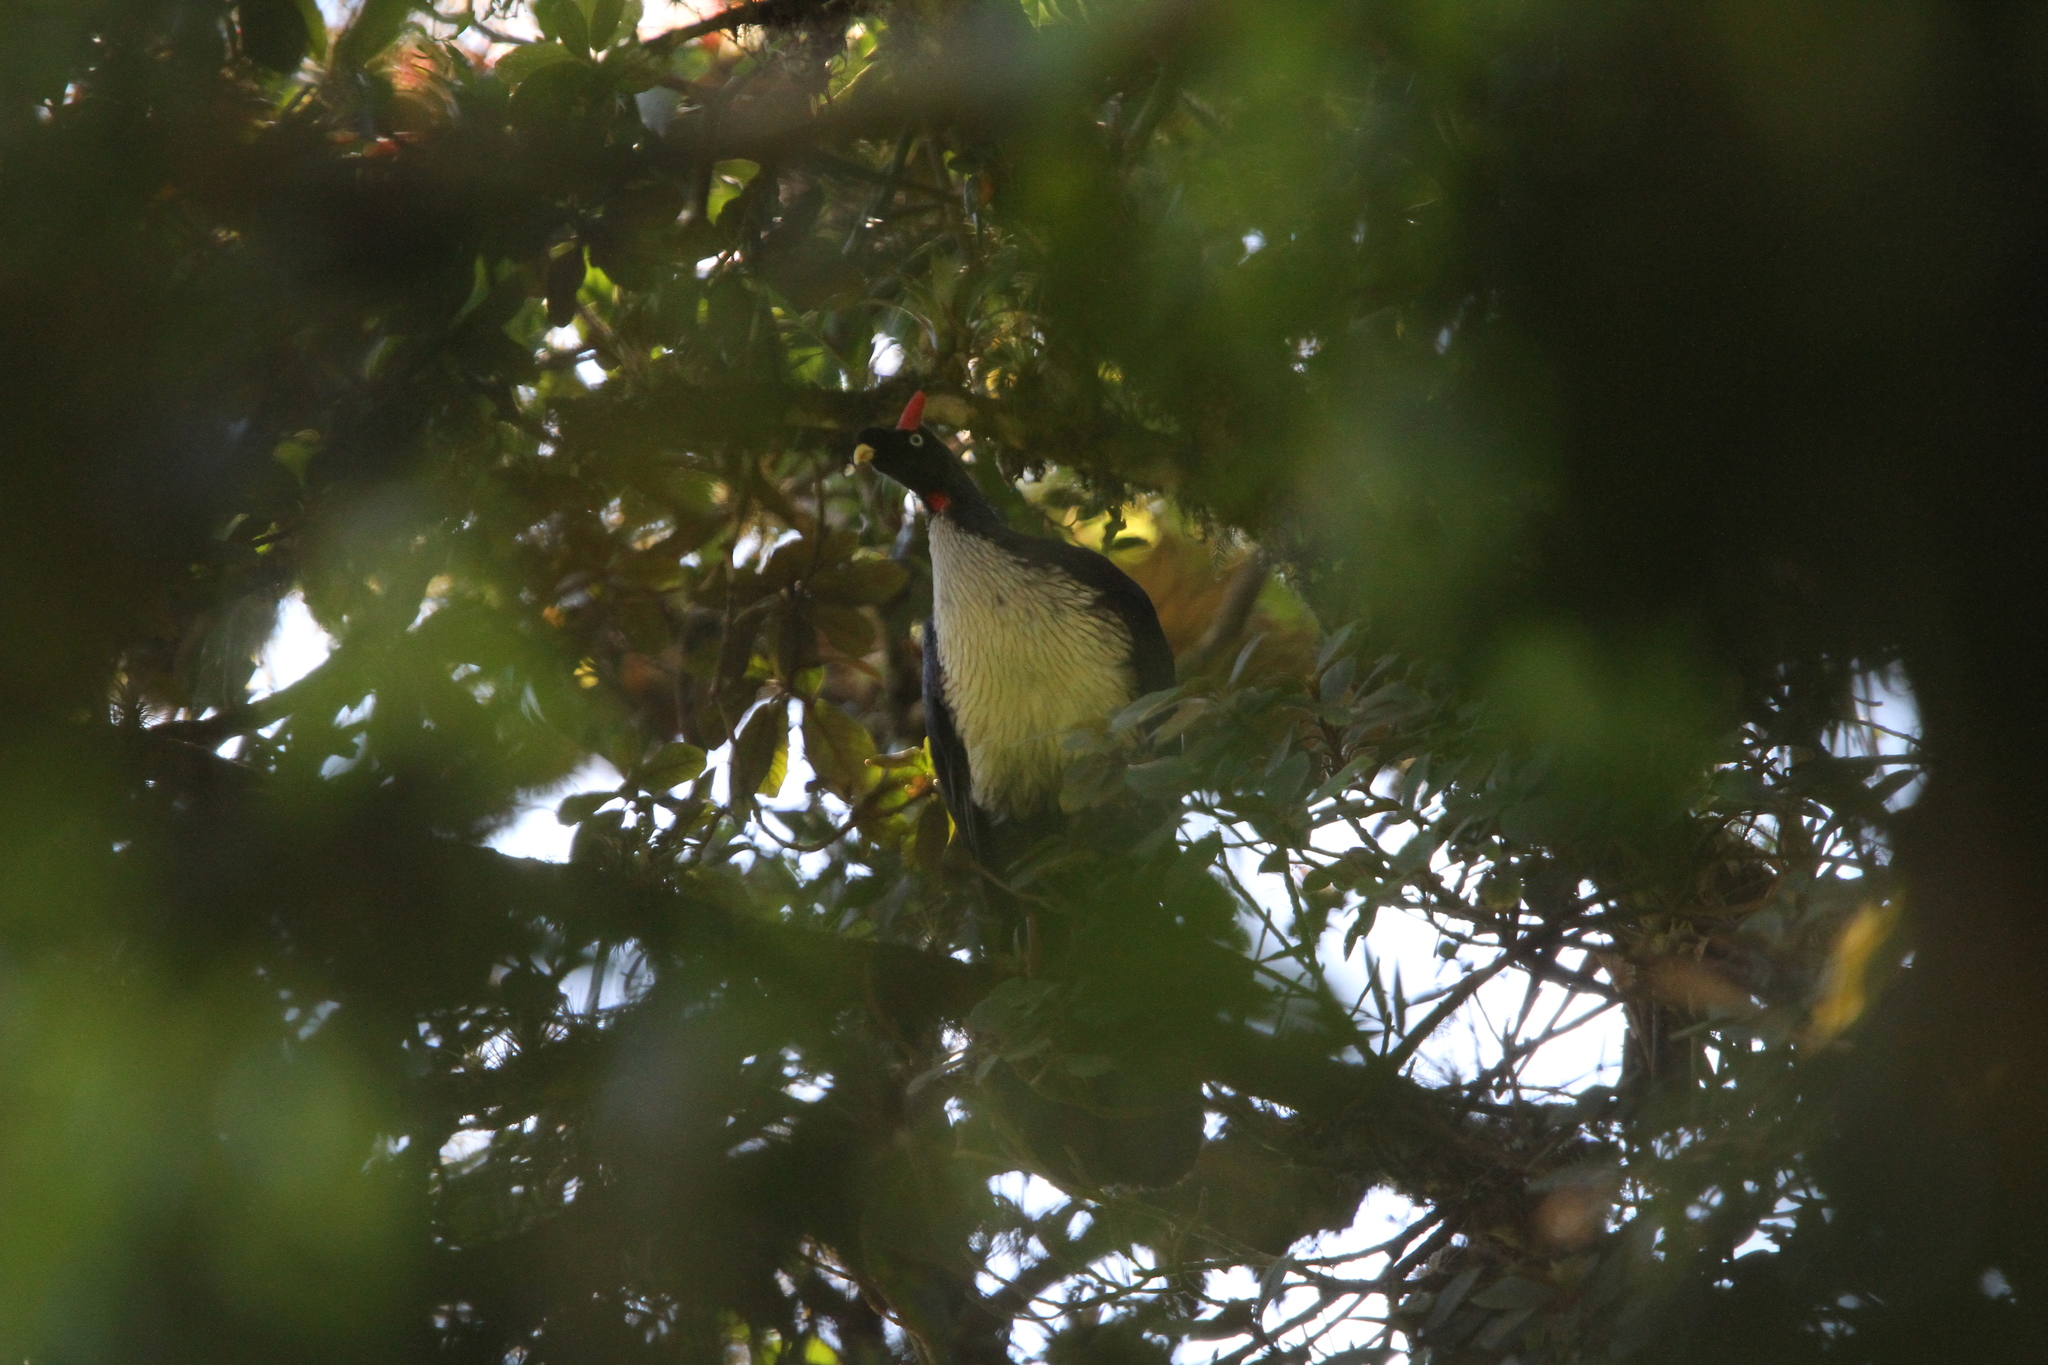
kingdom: Animalia
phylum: Chordata
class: Aves
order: Galliformes
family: Cracidae
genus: Oreophasis
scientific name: Oreophasis derbianus
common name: Horned guan
